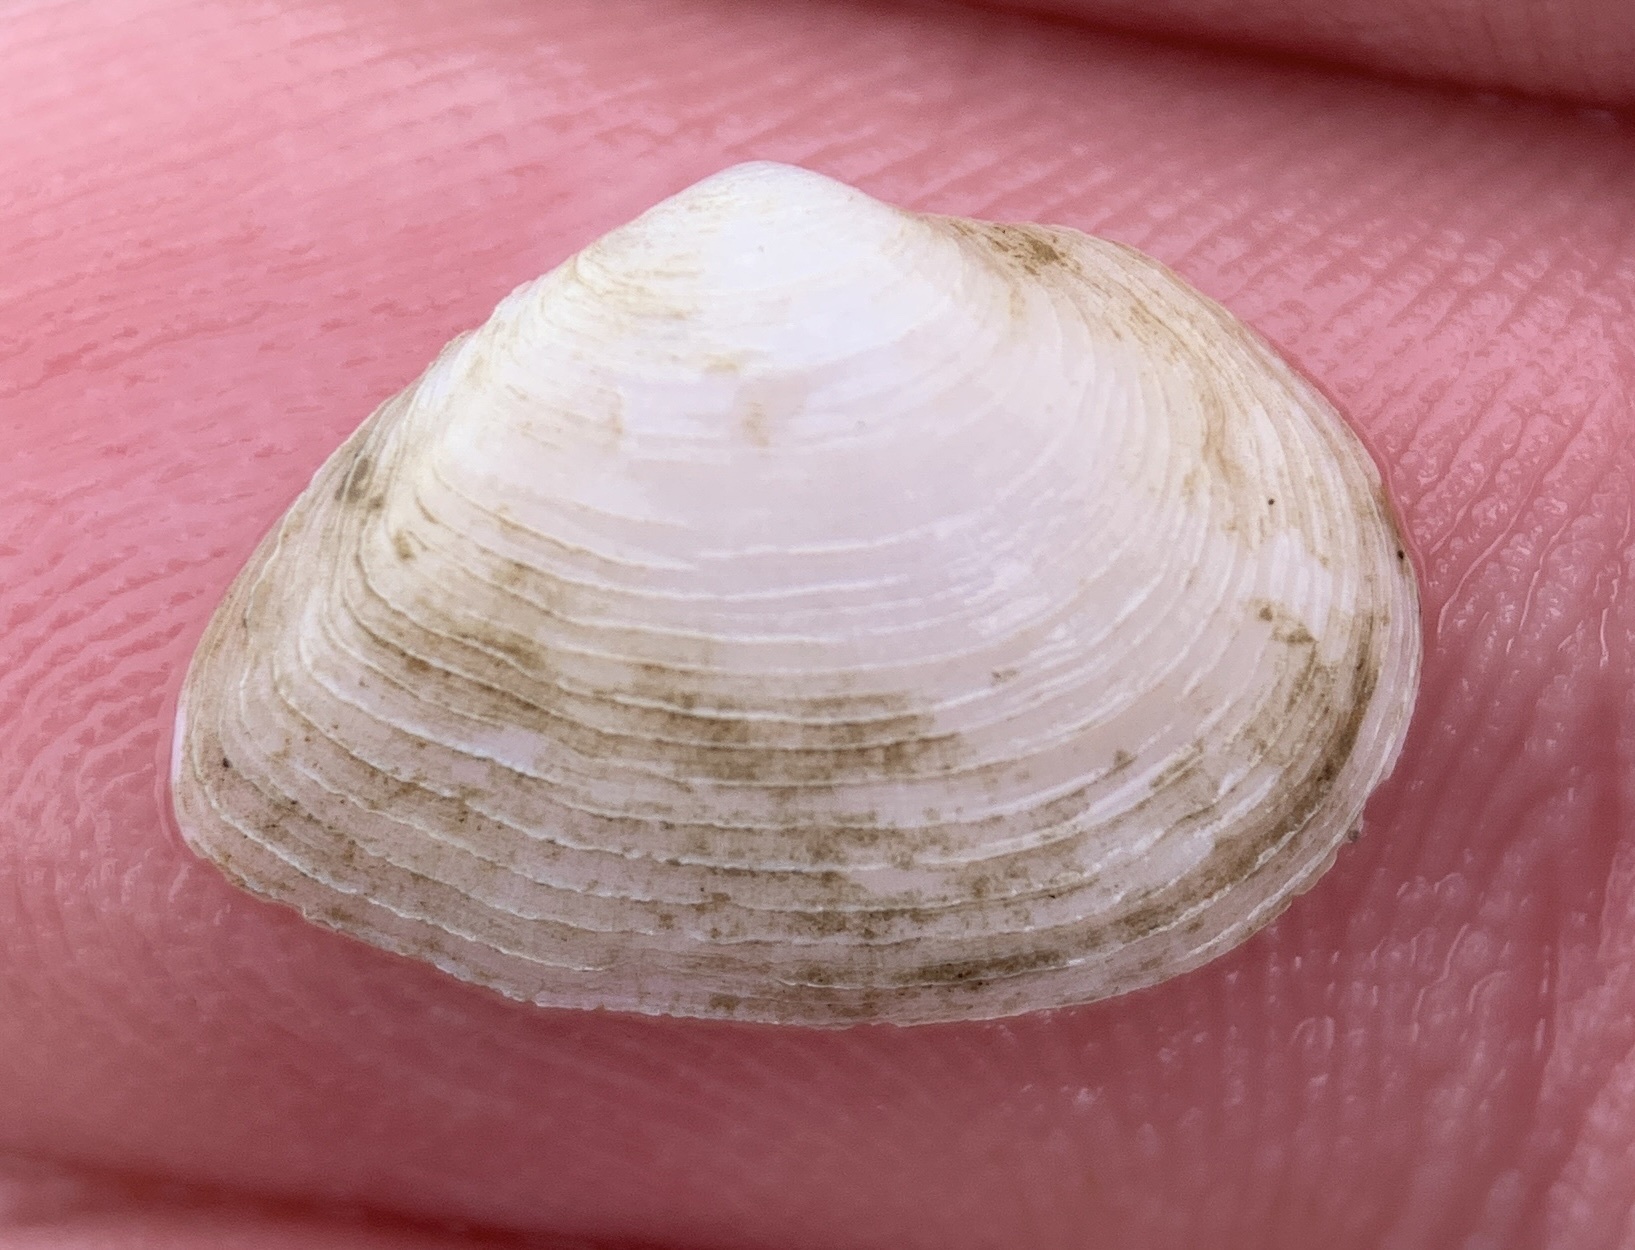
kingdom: Animalia
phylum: Mollusca
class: Bivalvia
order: Cardiida
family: Semelidae
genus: Cumingia
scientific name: Cumingia sinuosa
